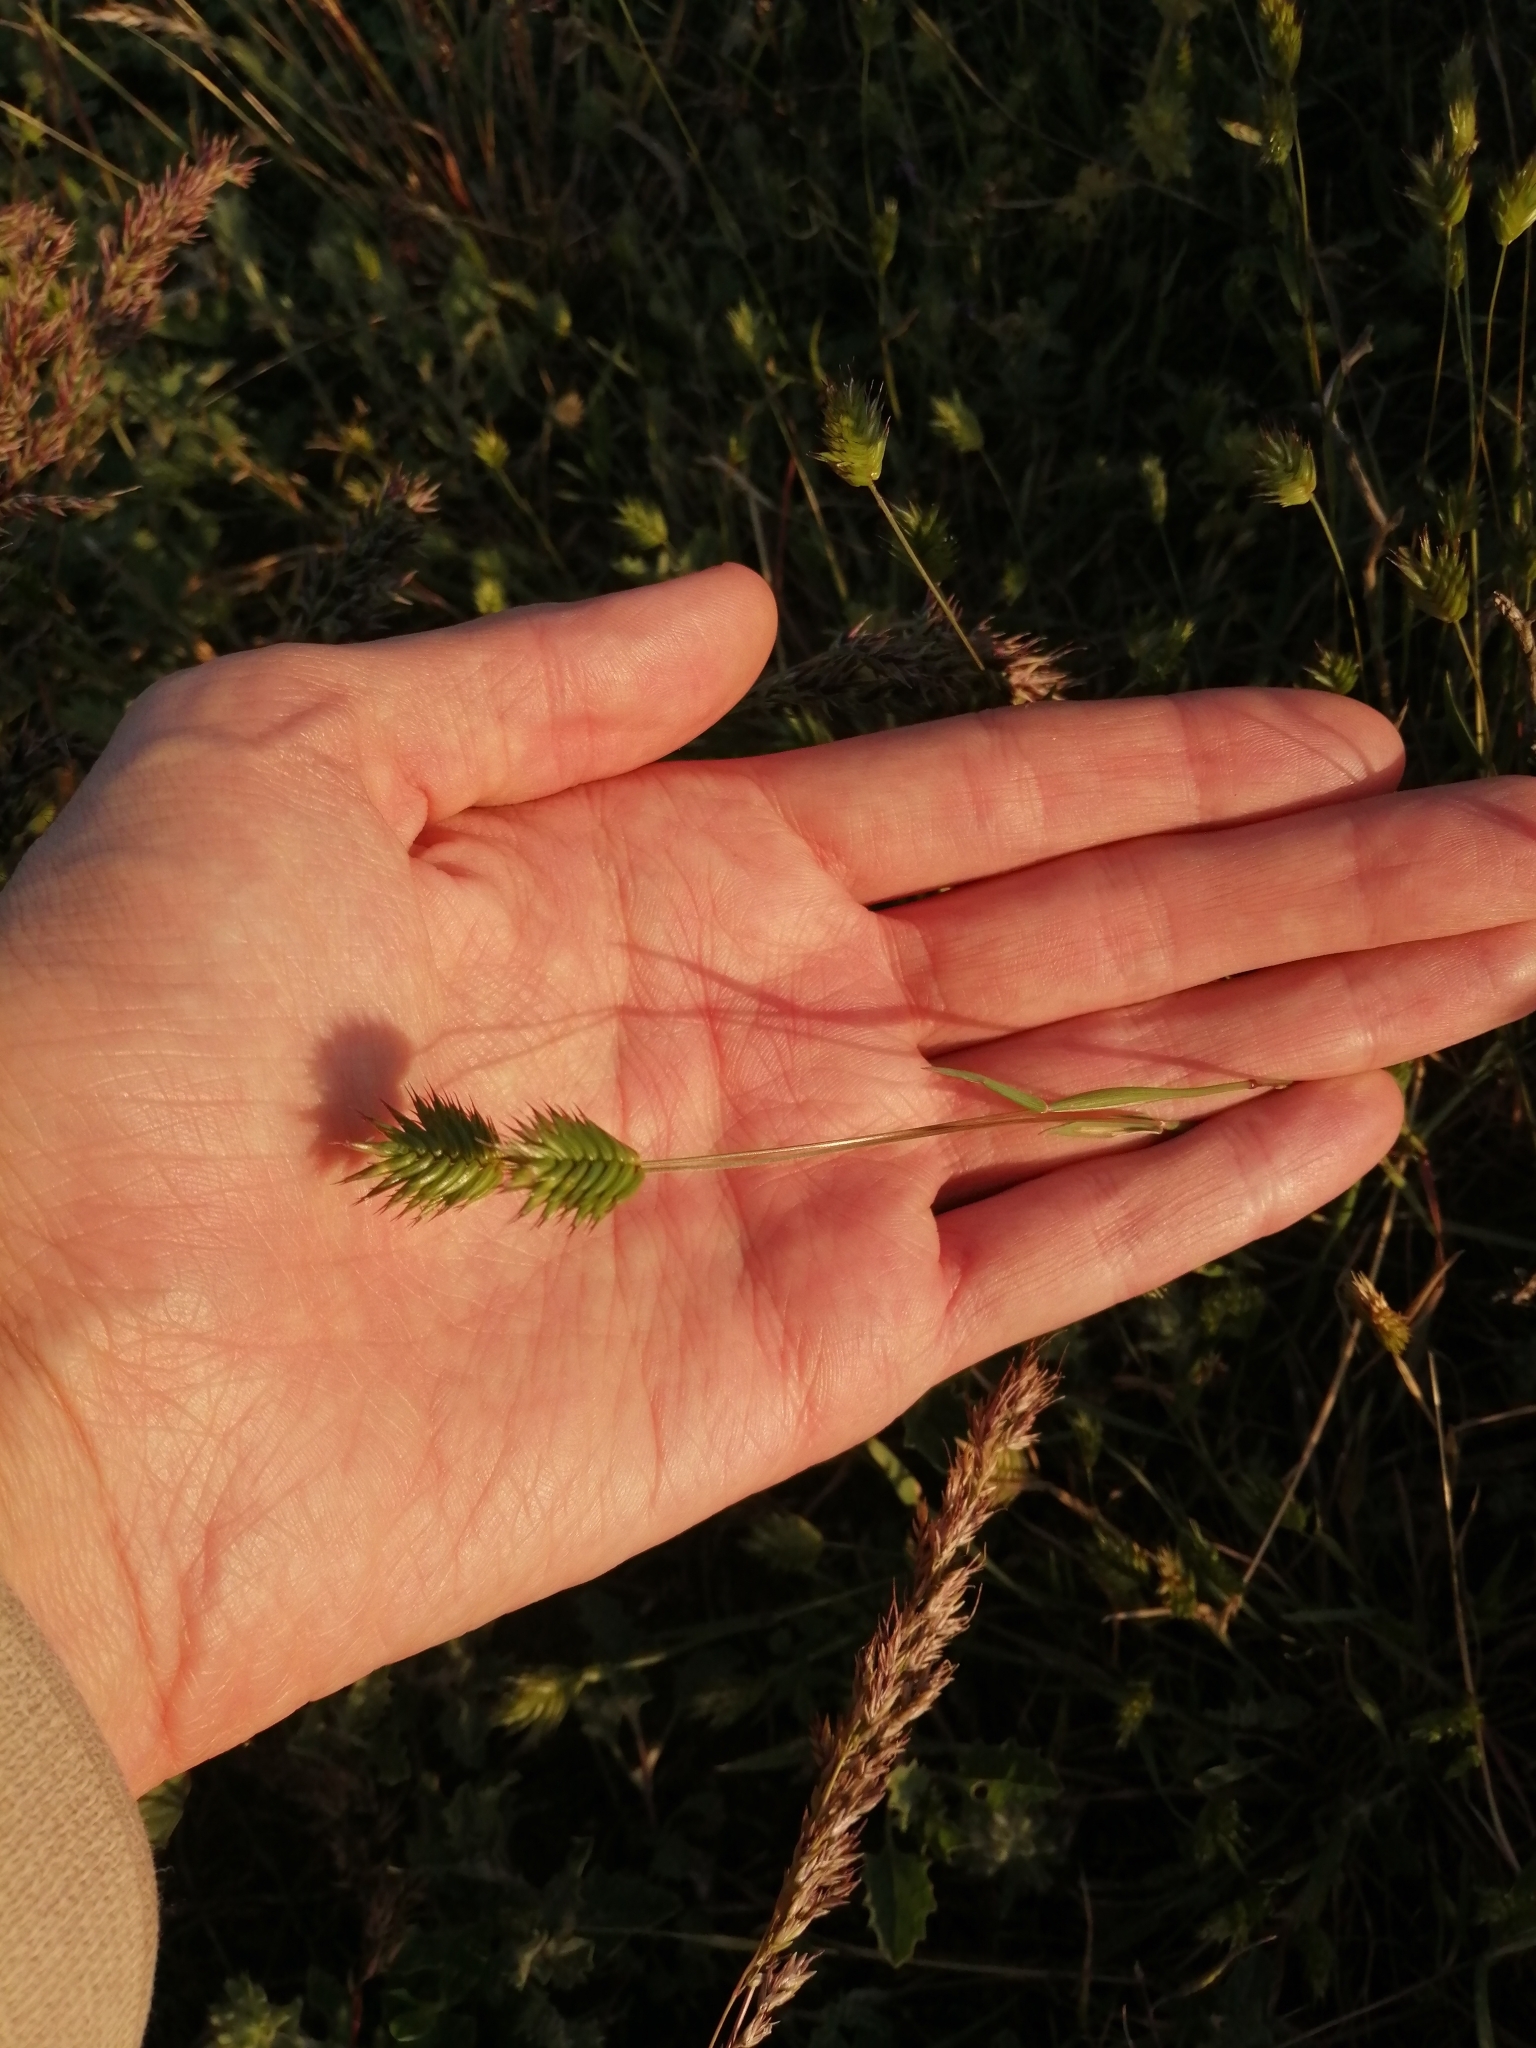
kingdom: Plantae
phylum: Tracheophyta
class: Liliopsida
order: Poales
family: Poaceae
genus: Eremopyrum
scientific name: Eremopyrum triticeum
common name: Annual wheatgrass
